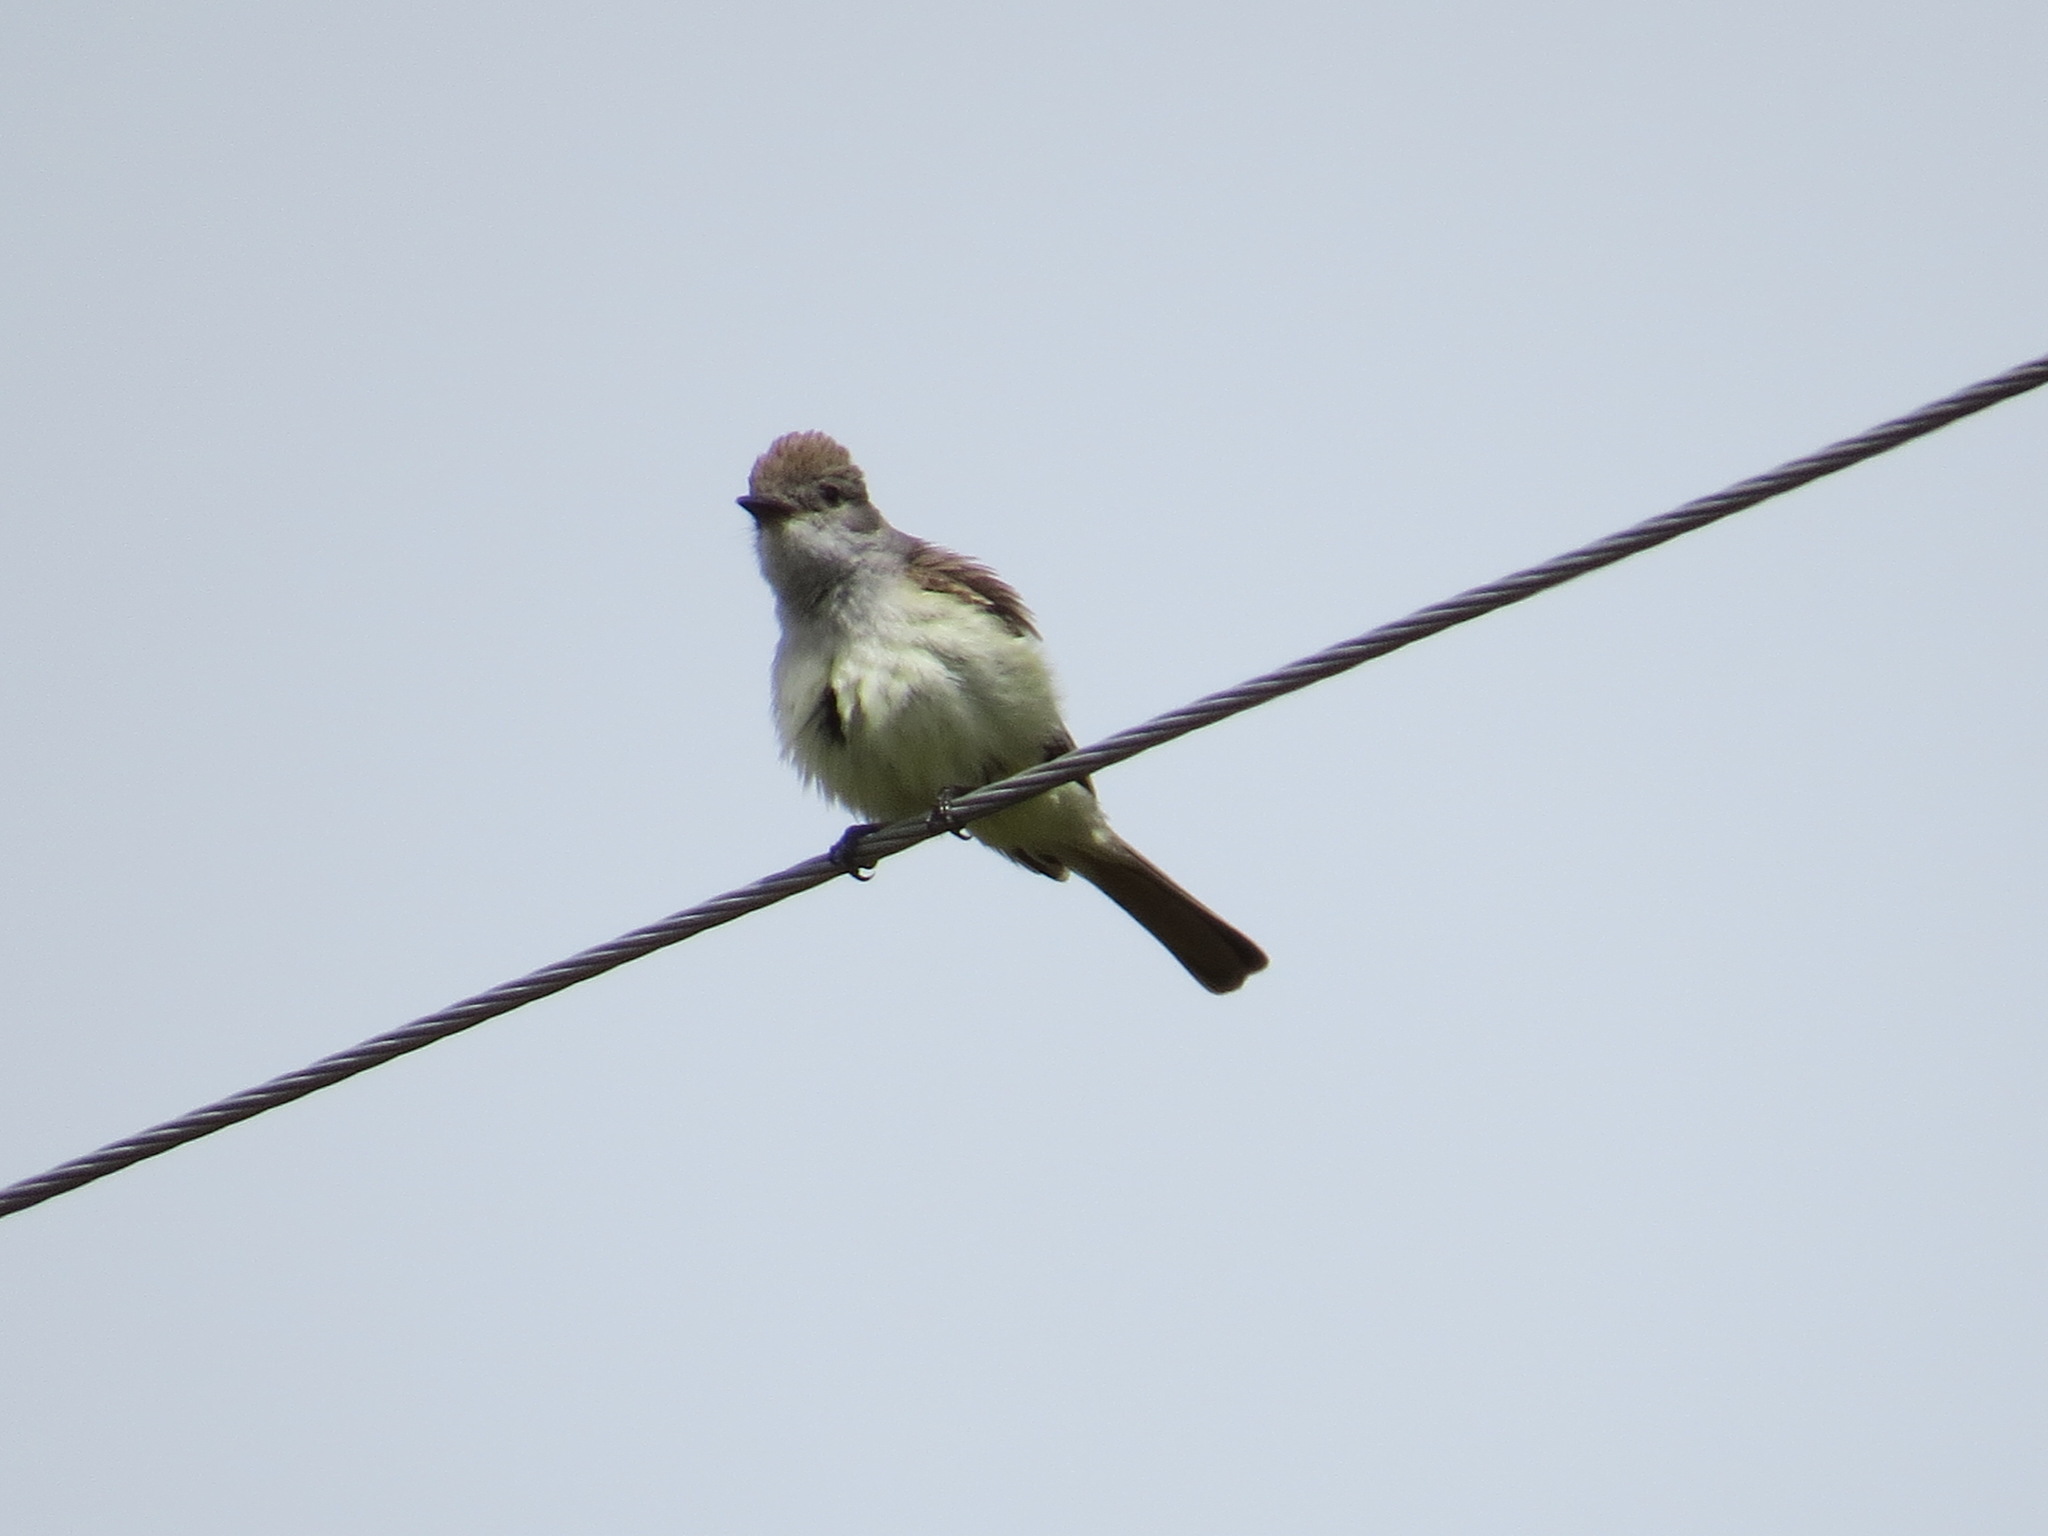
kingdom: Animalia
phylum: Chordata
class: Aves
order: Passeriformes
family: Tyrannidae
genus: Myiarchus
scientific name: Myiarchus cinerascens
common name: Ash-throated flycatcher
